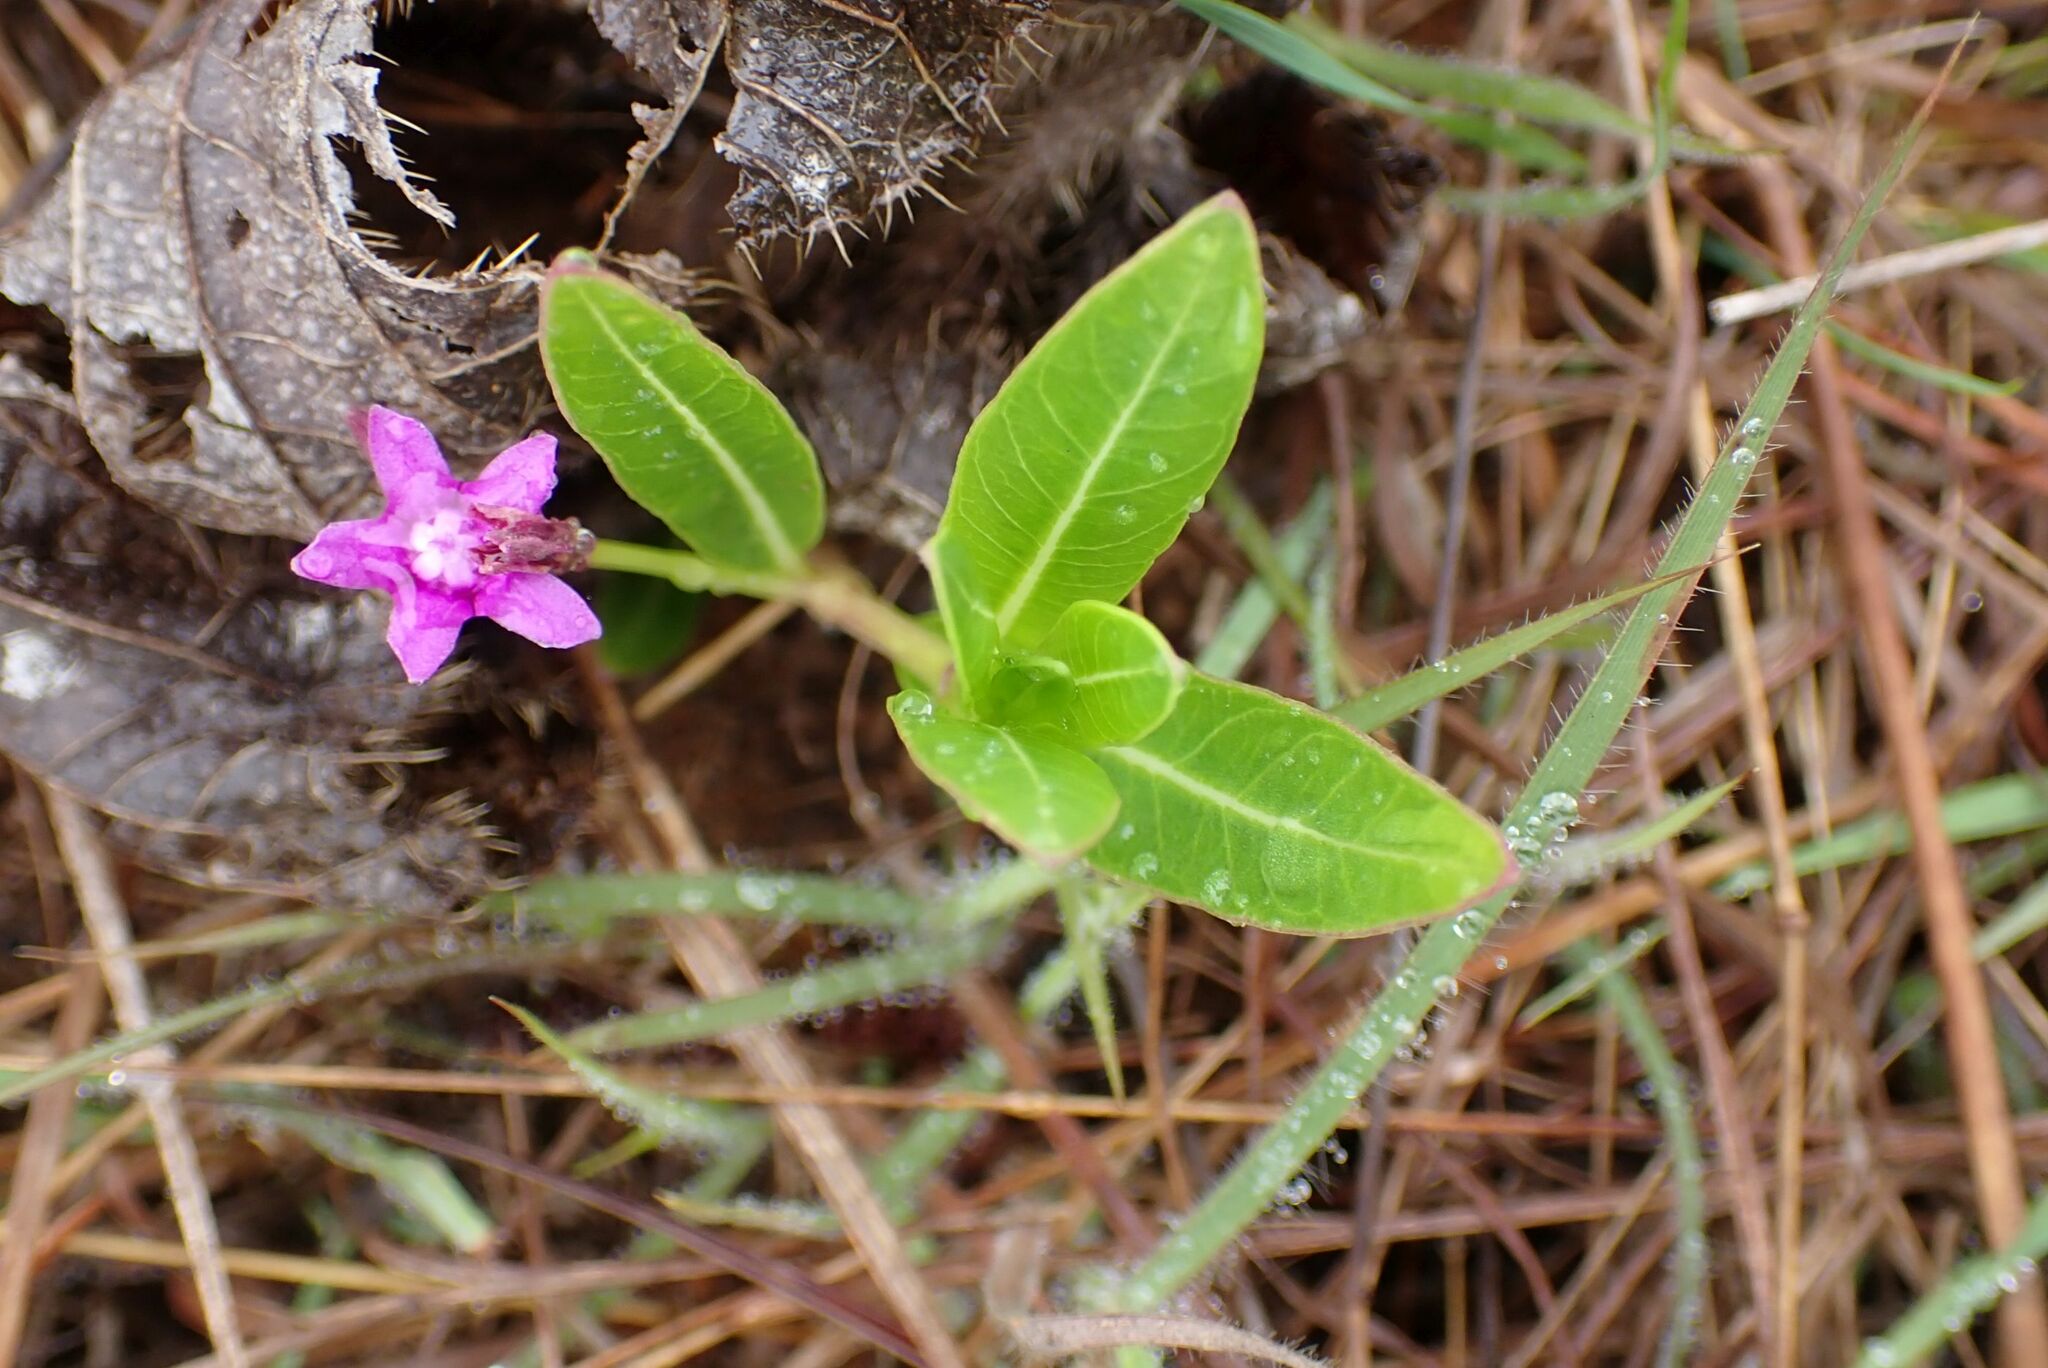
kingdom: Plantae
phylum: Tracheophyta
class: Magnoliopsida
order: Gentianales
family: Apocynaceae
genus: Raphionacme
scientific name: Raphionacme hirsuta
